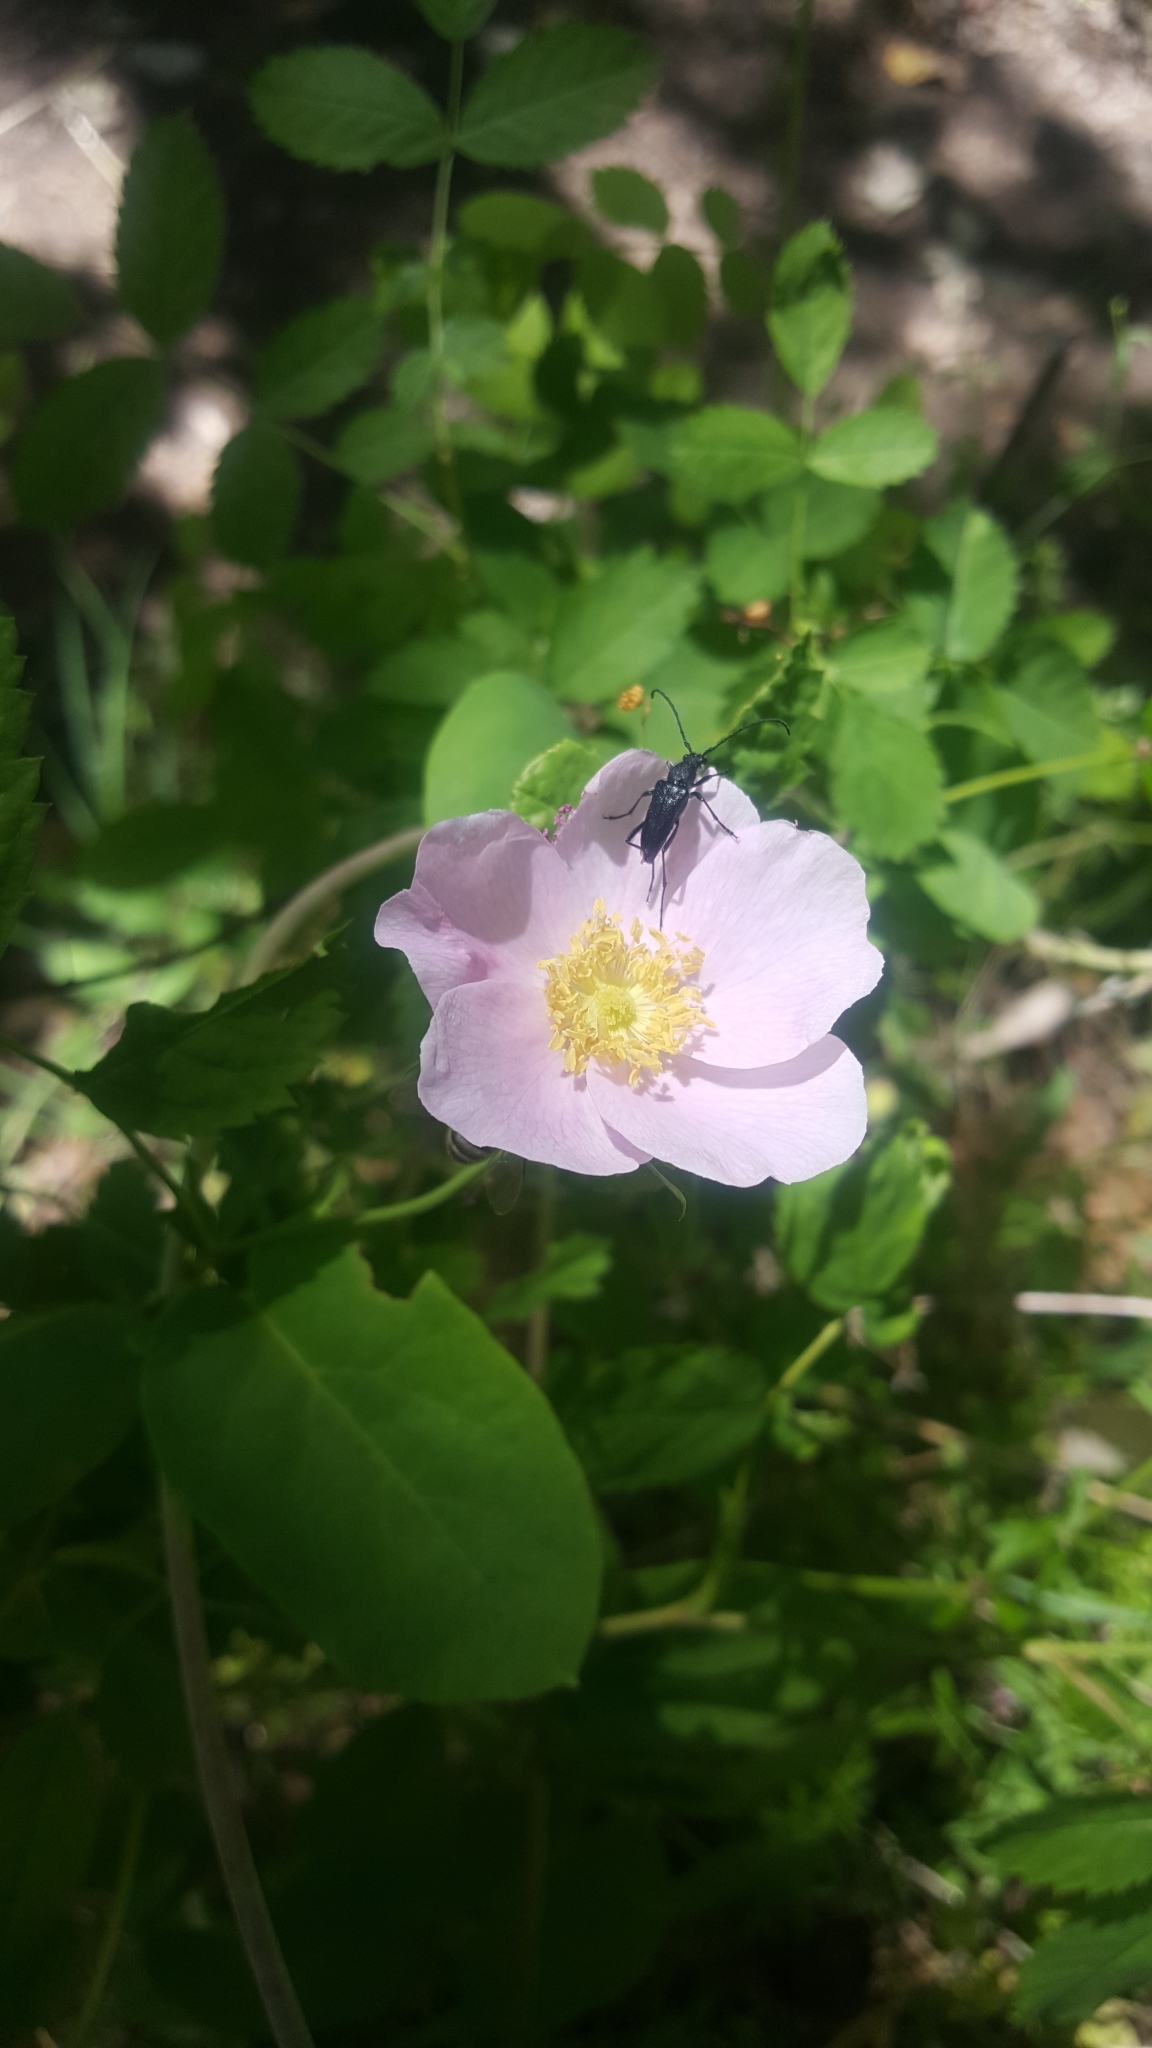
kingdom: Plantae
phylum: Tracheophyta
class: Magnoliopsida
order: Rosales
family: Rosaceae
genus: Rosa
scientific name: Rosa woodsii
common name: Woods's rose
